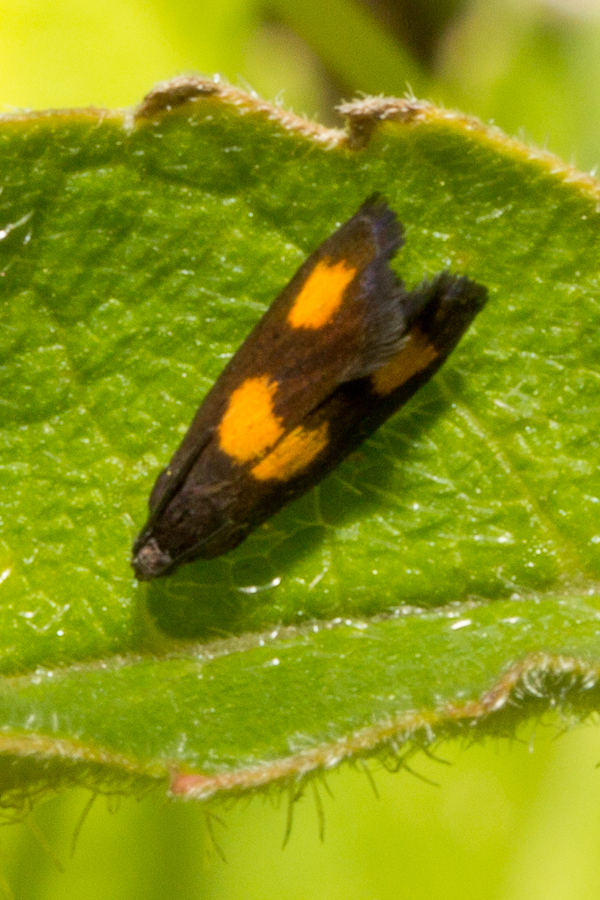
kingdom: Animalia
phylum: Arthropoda
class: Insecta
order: Lepidoptera
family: Tortricidae
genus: Pammene
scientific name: Pammene aurana
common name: Orange-spot piercer
